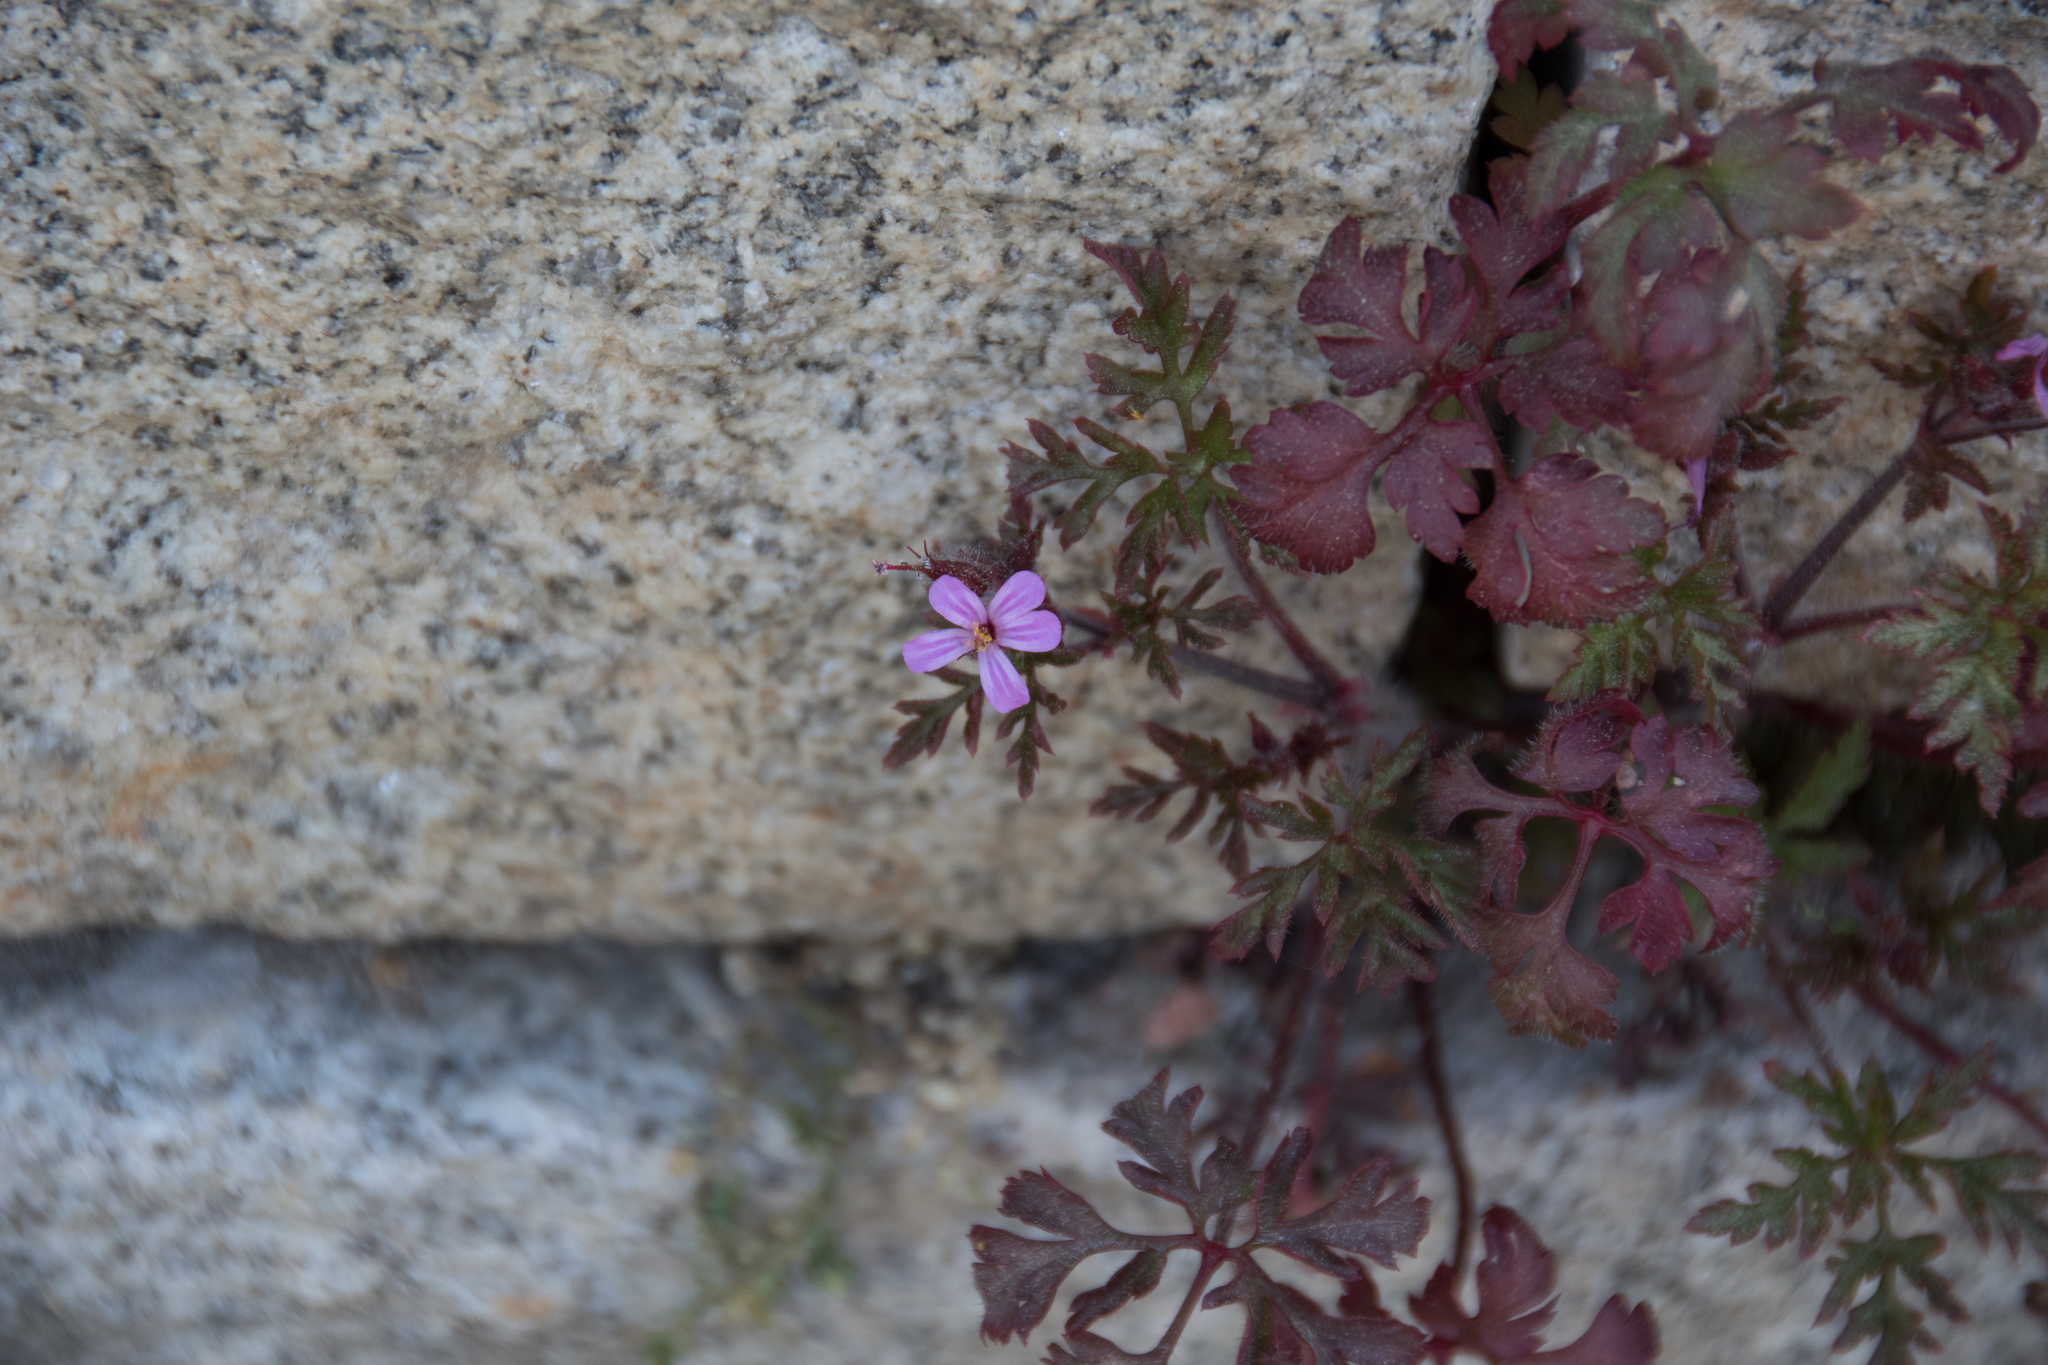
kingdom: Plantae
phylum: Tracheophyta
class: Magnoliopsida
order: Geraniales
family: Geraniaceae
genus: Geranium
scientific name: Geranium robertianum
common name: Herb-robert
